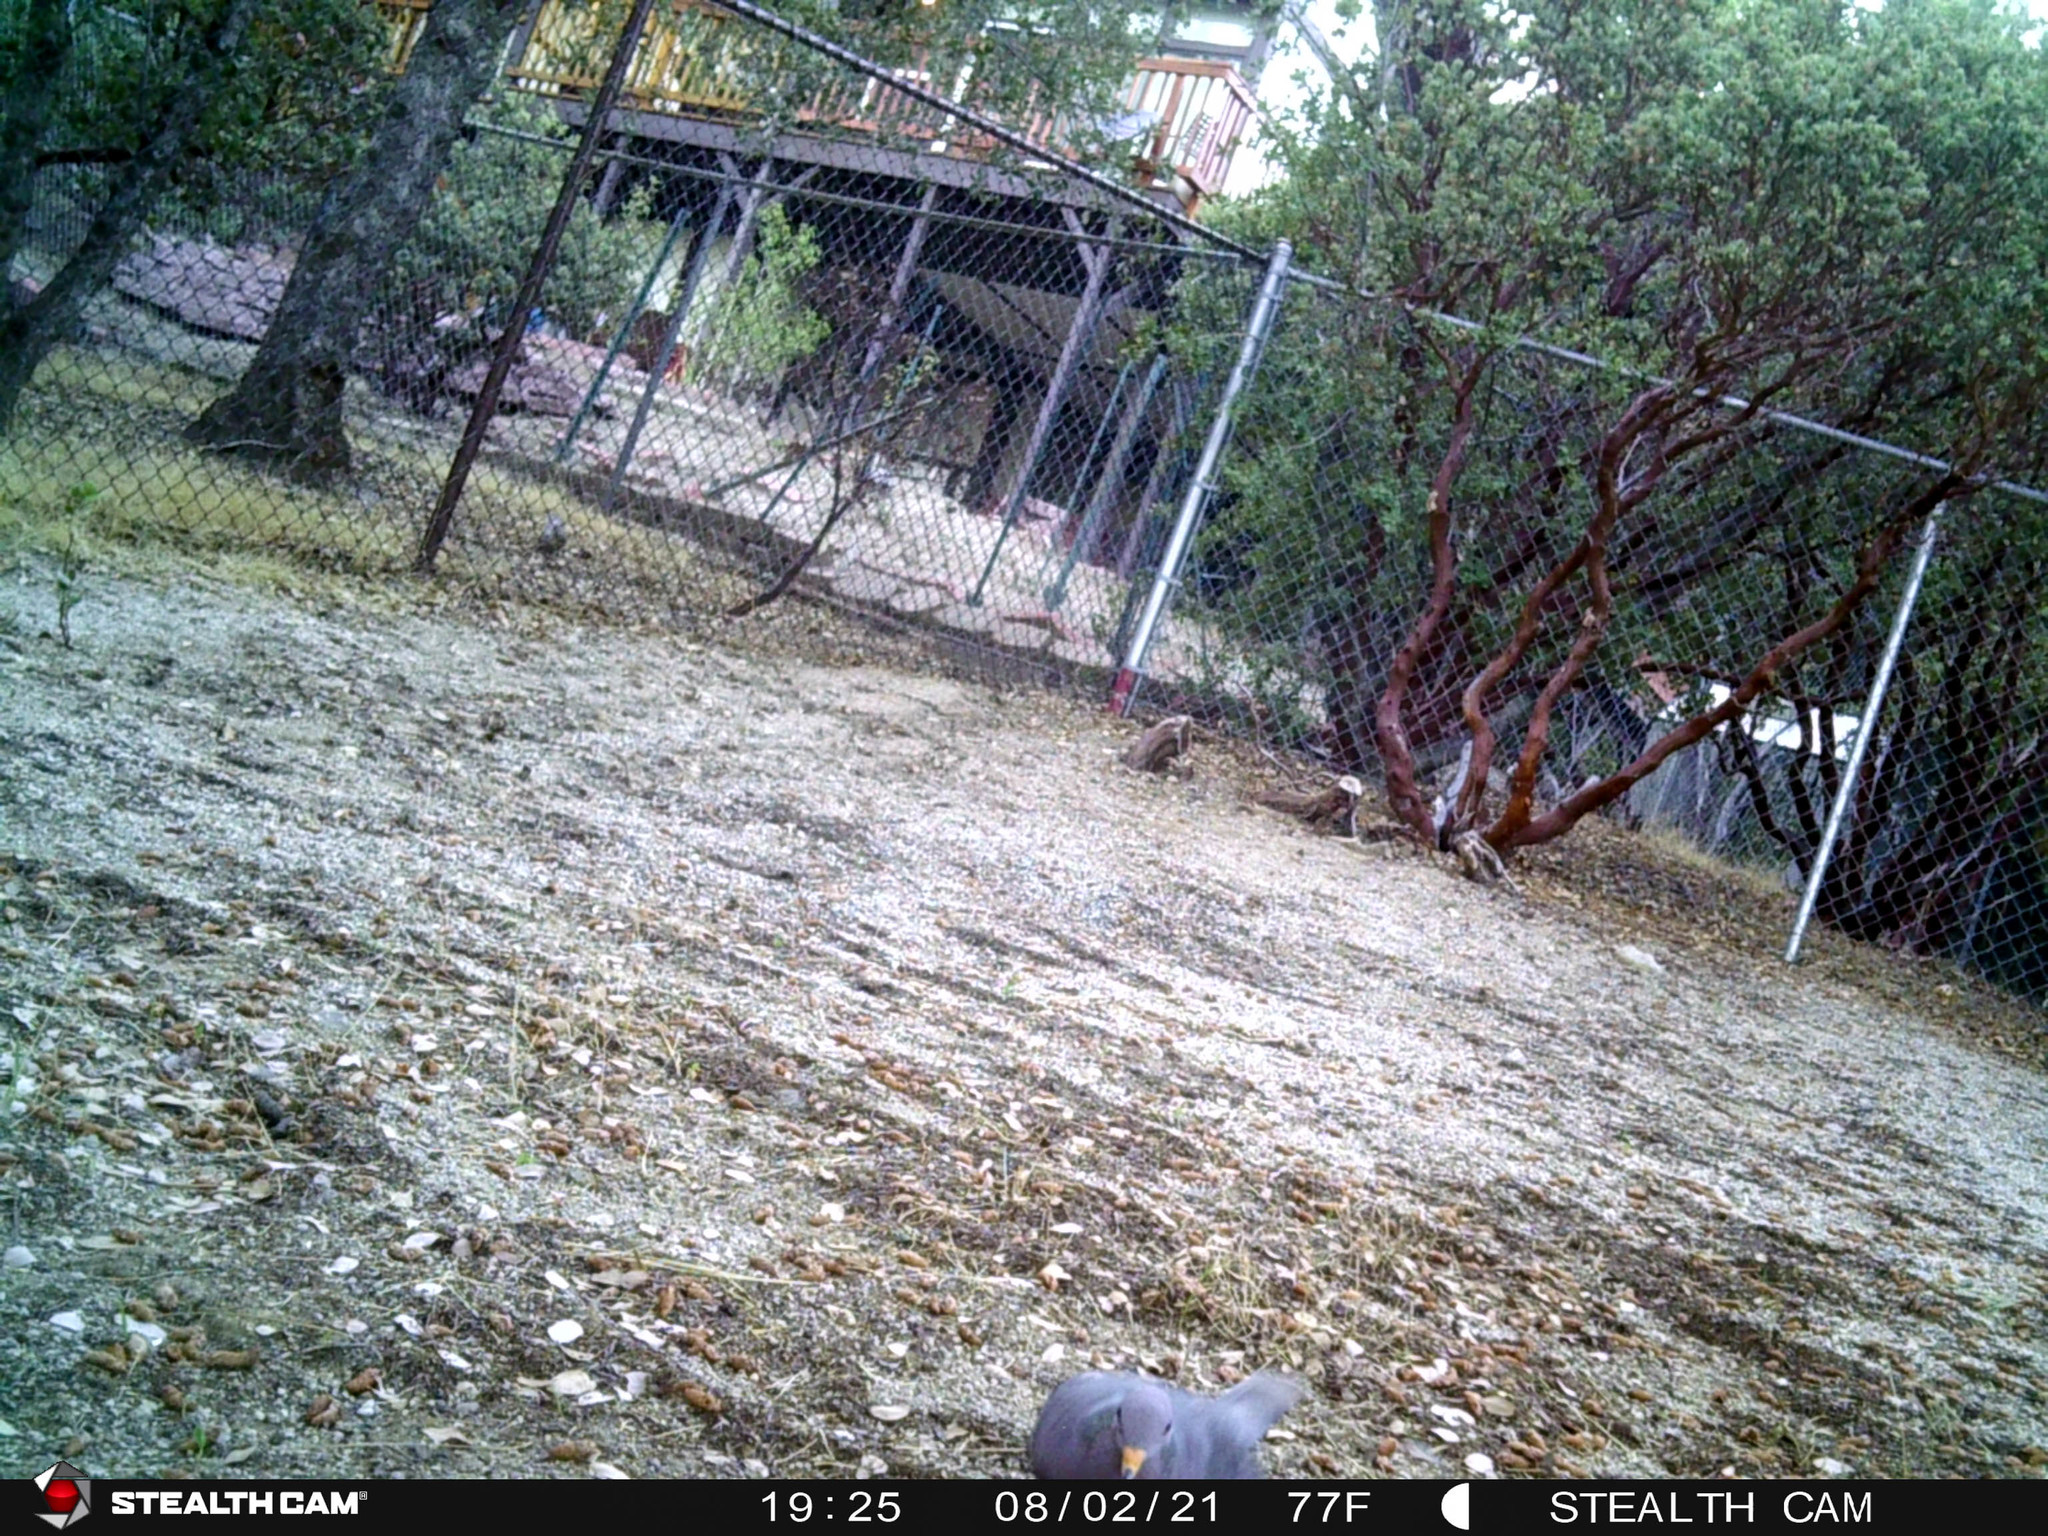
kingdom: Animalia
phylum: Chordata
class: Aves
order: Columbiformes
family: Columbidae
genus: Patagioenas
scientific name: Patagioenas fasciata
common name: Band-tailed pigeon
